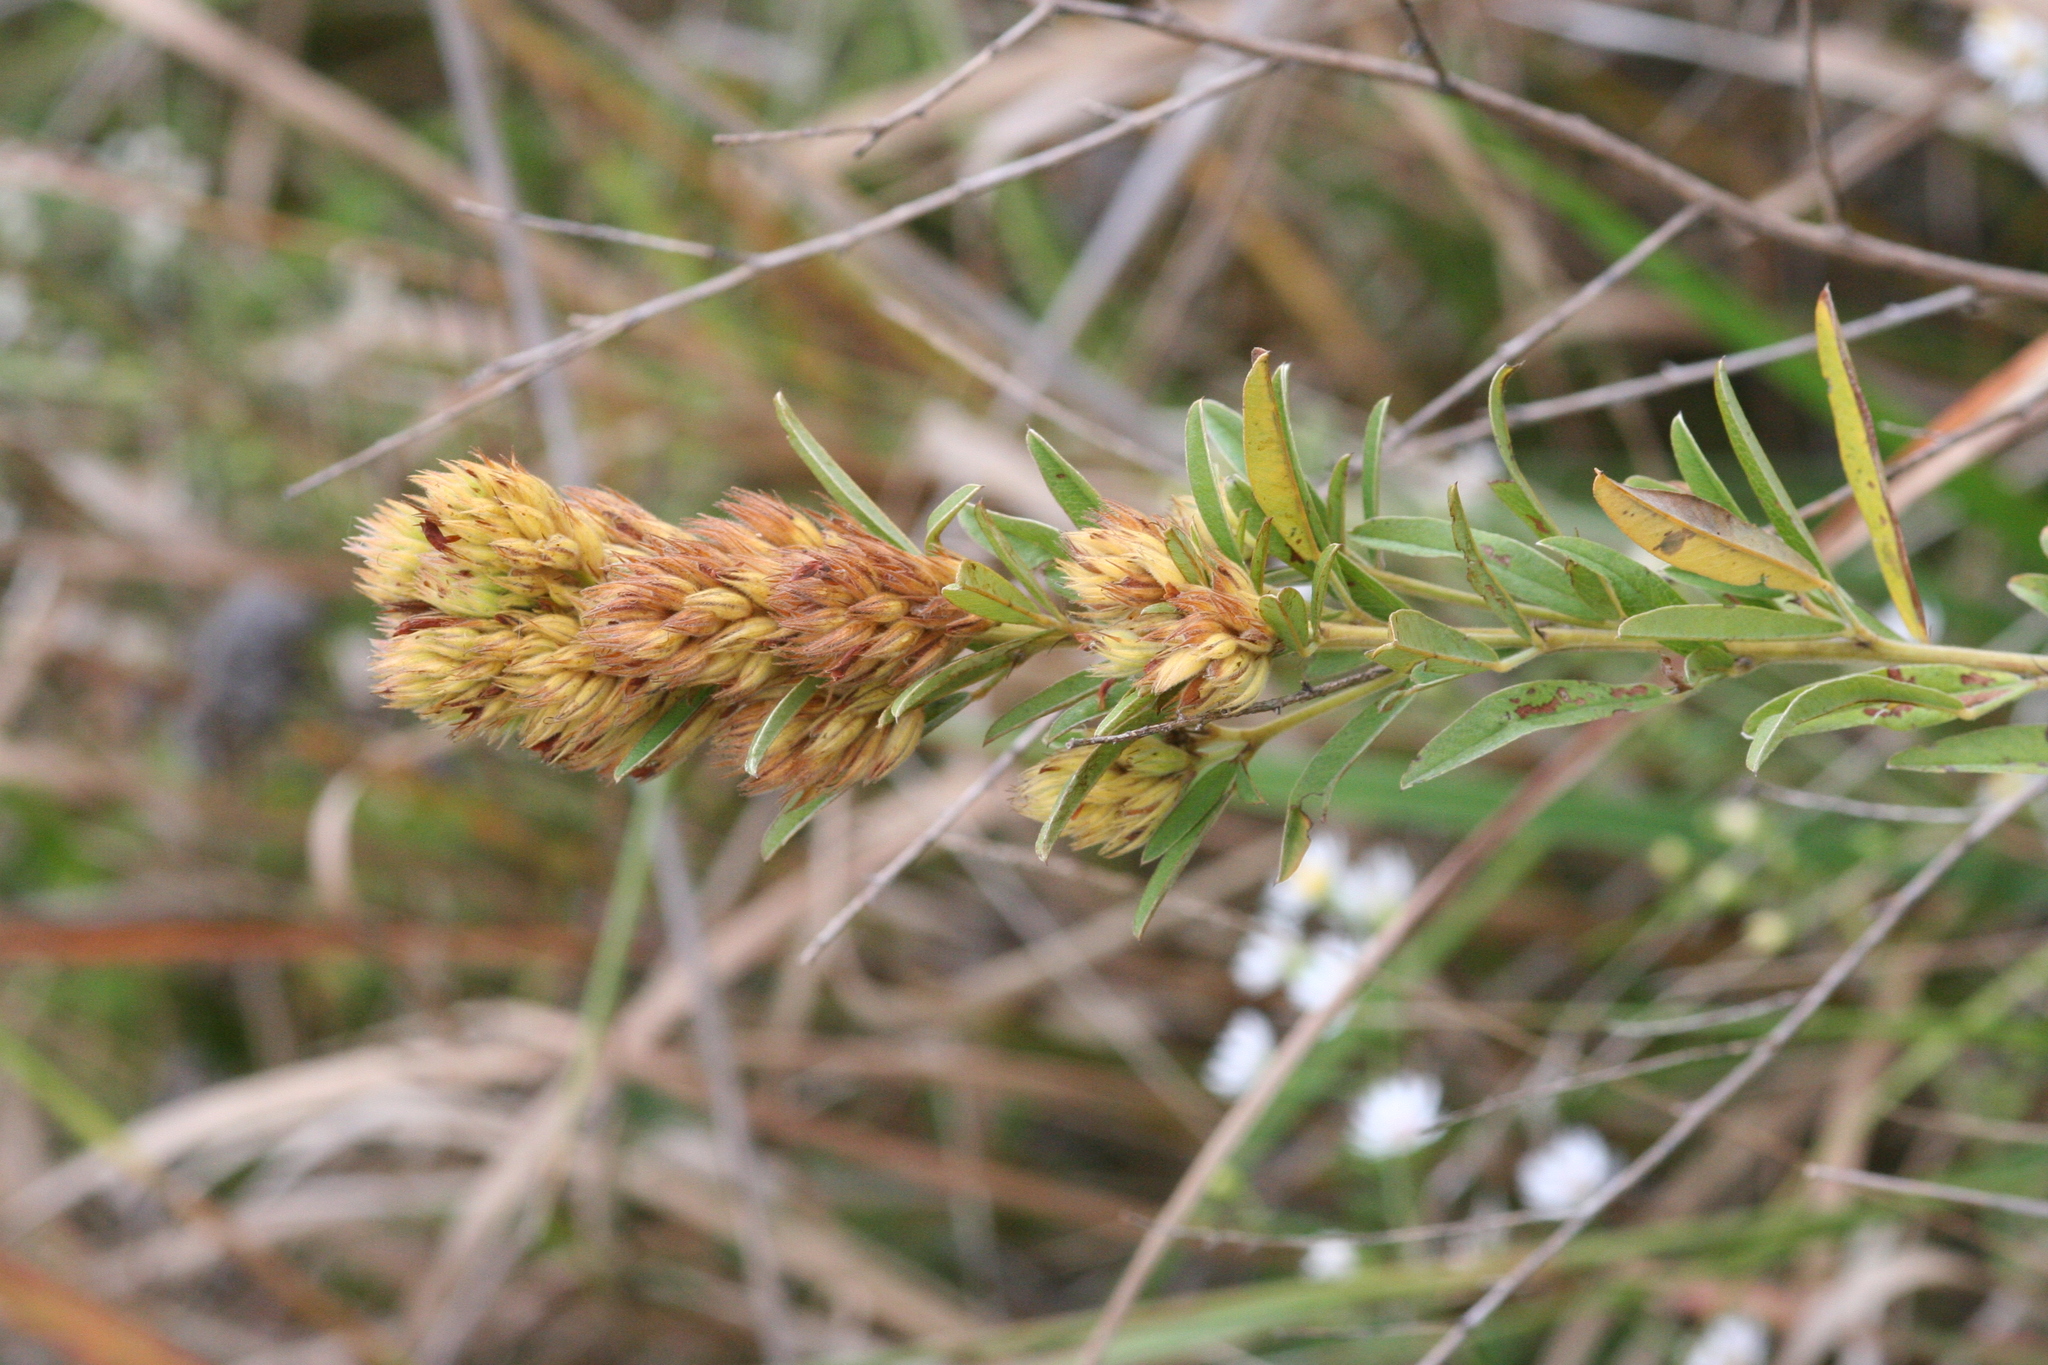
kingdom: Plantae
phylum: Tracheophyta
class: Magnoliopsida
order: Fabales
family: Fabaceae
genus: Lespedeza
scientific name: Lespedeza capitata
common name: Dusty clover
